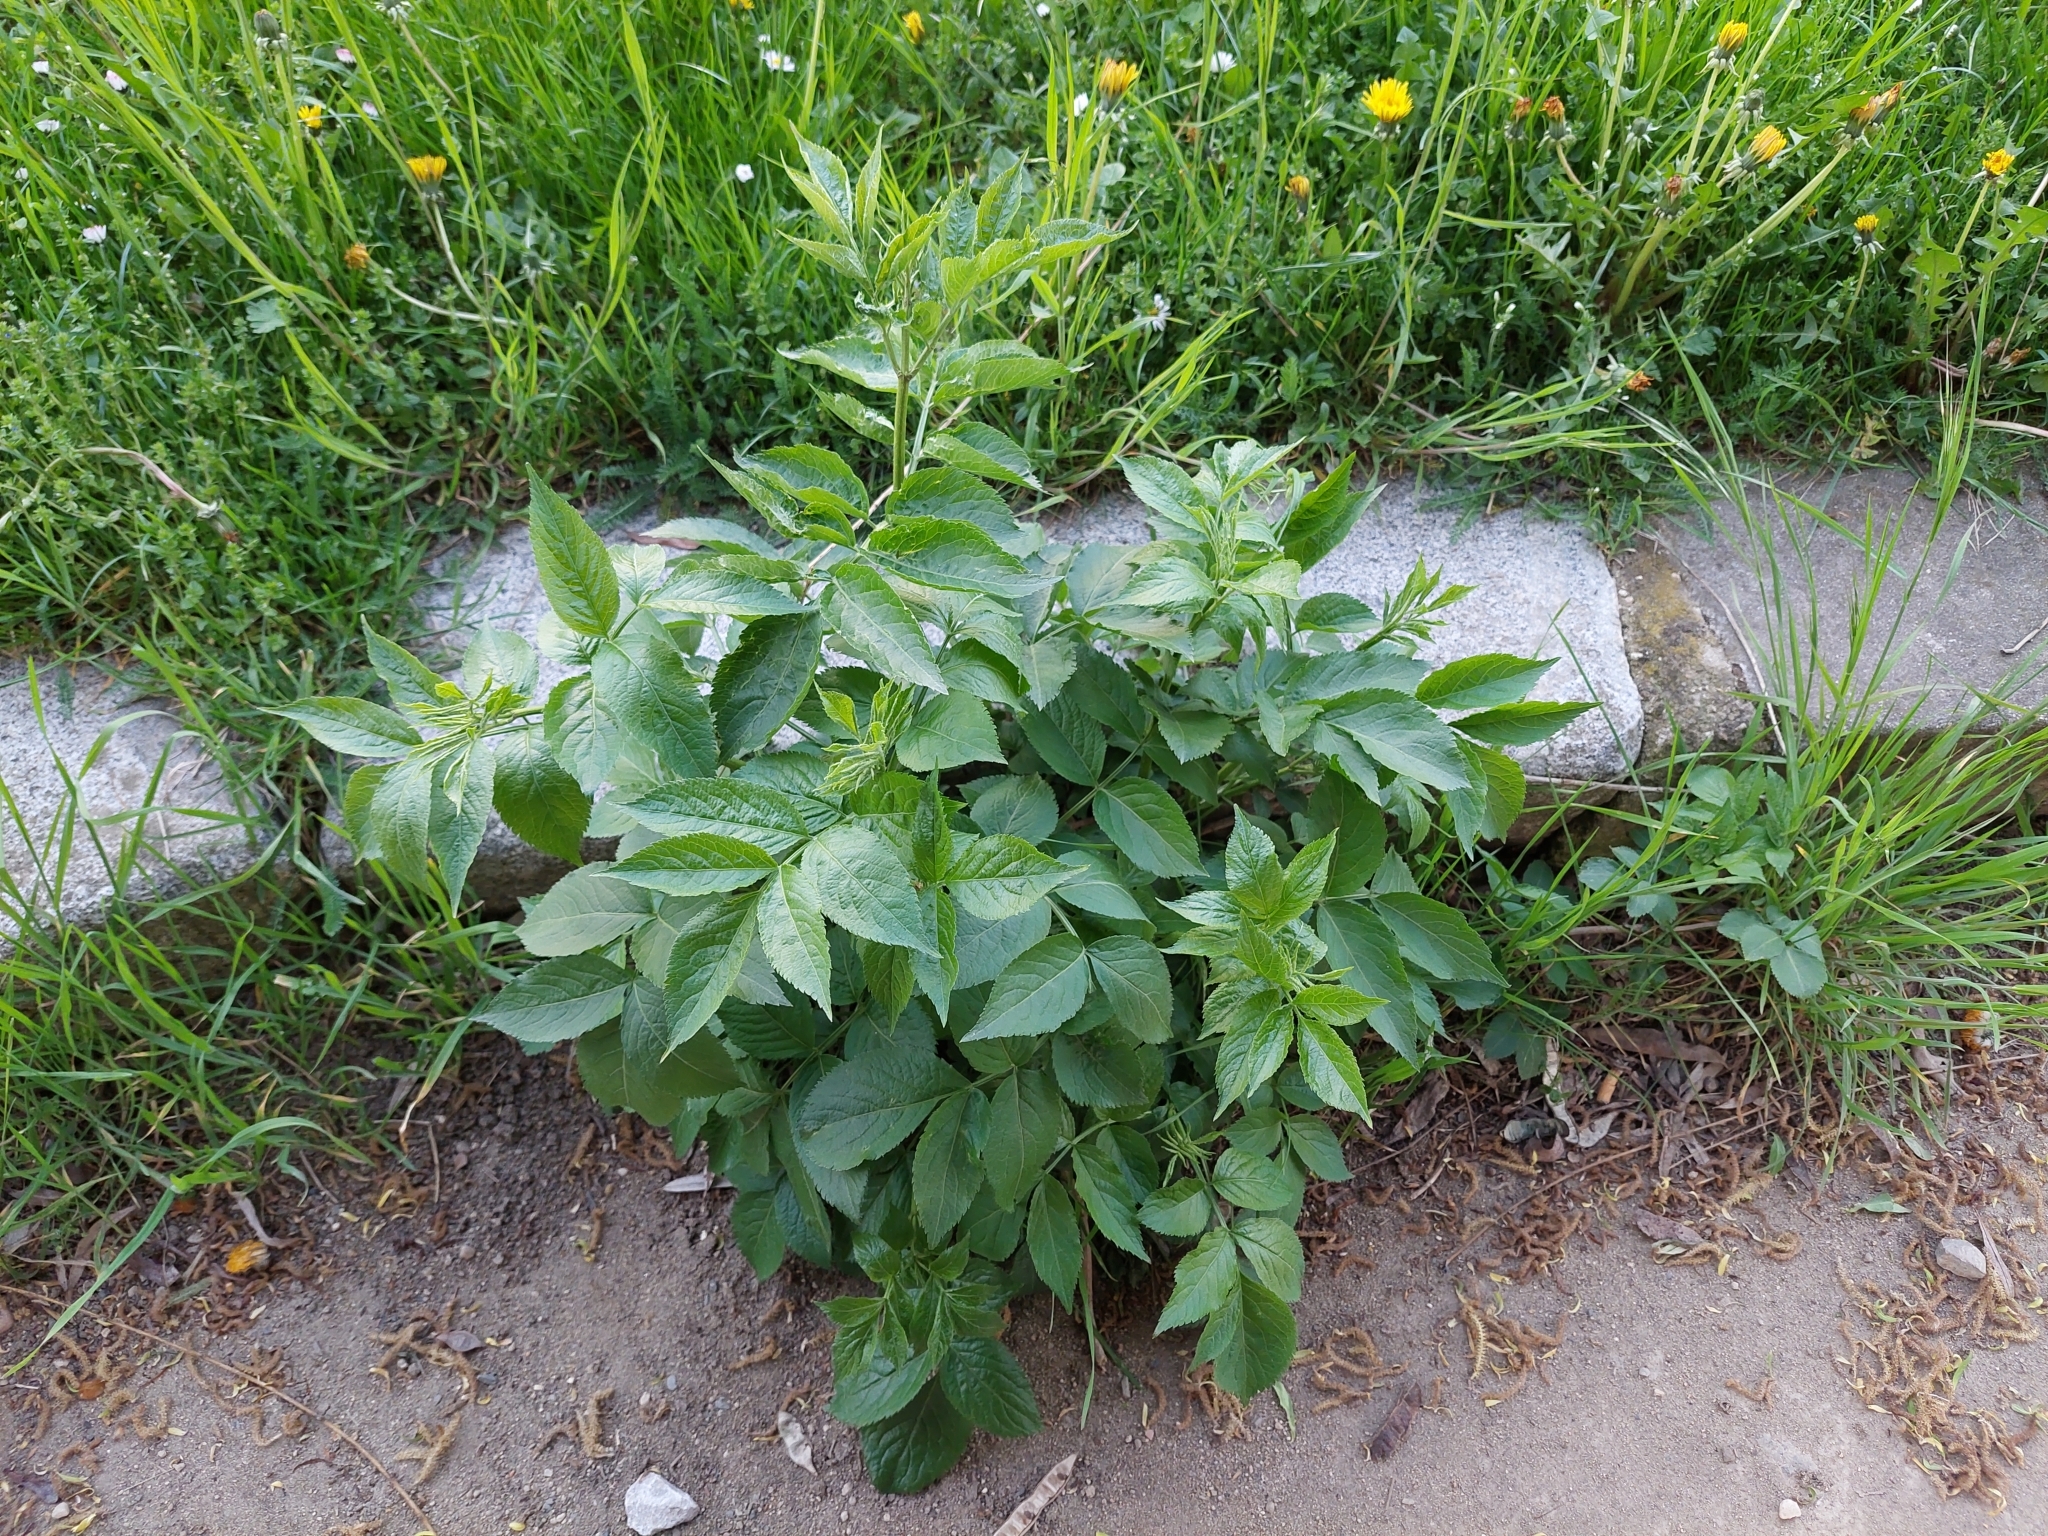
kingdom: Plantae
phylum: Tracheophyta
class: Magnoliopsida
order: Dipsacales
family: Viburnaceae
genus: Sambucus
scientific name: Sambucus nigra
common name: Elder
